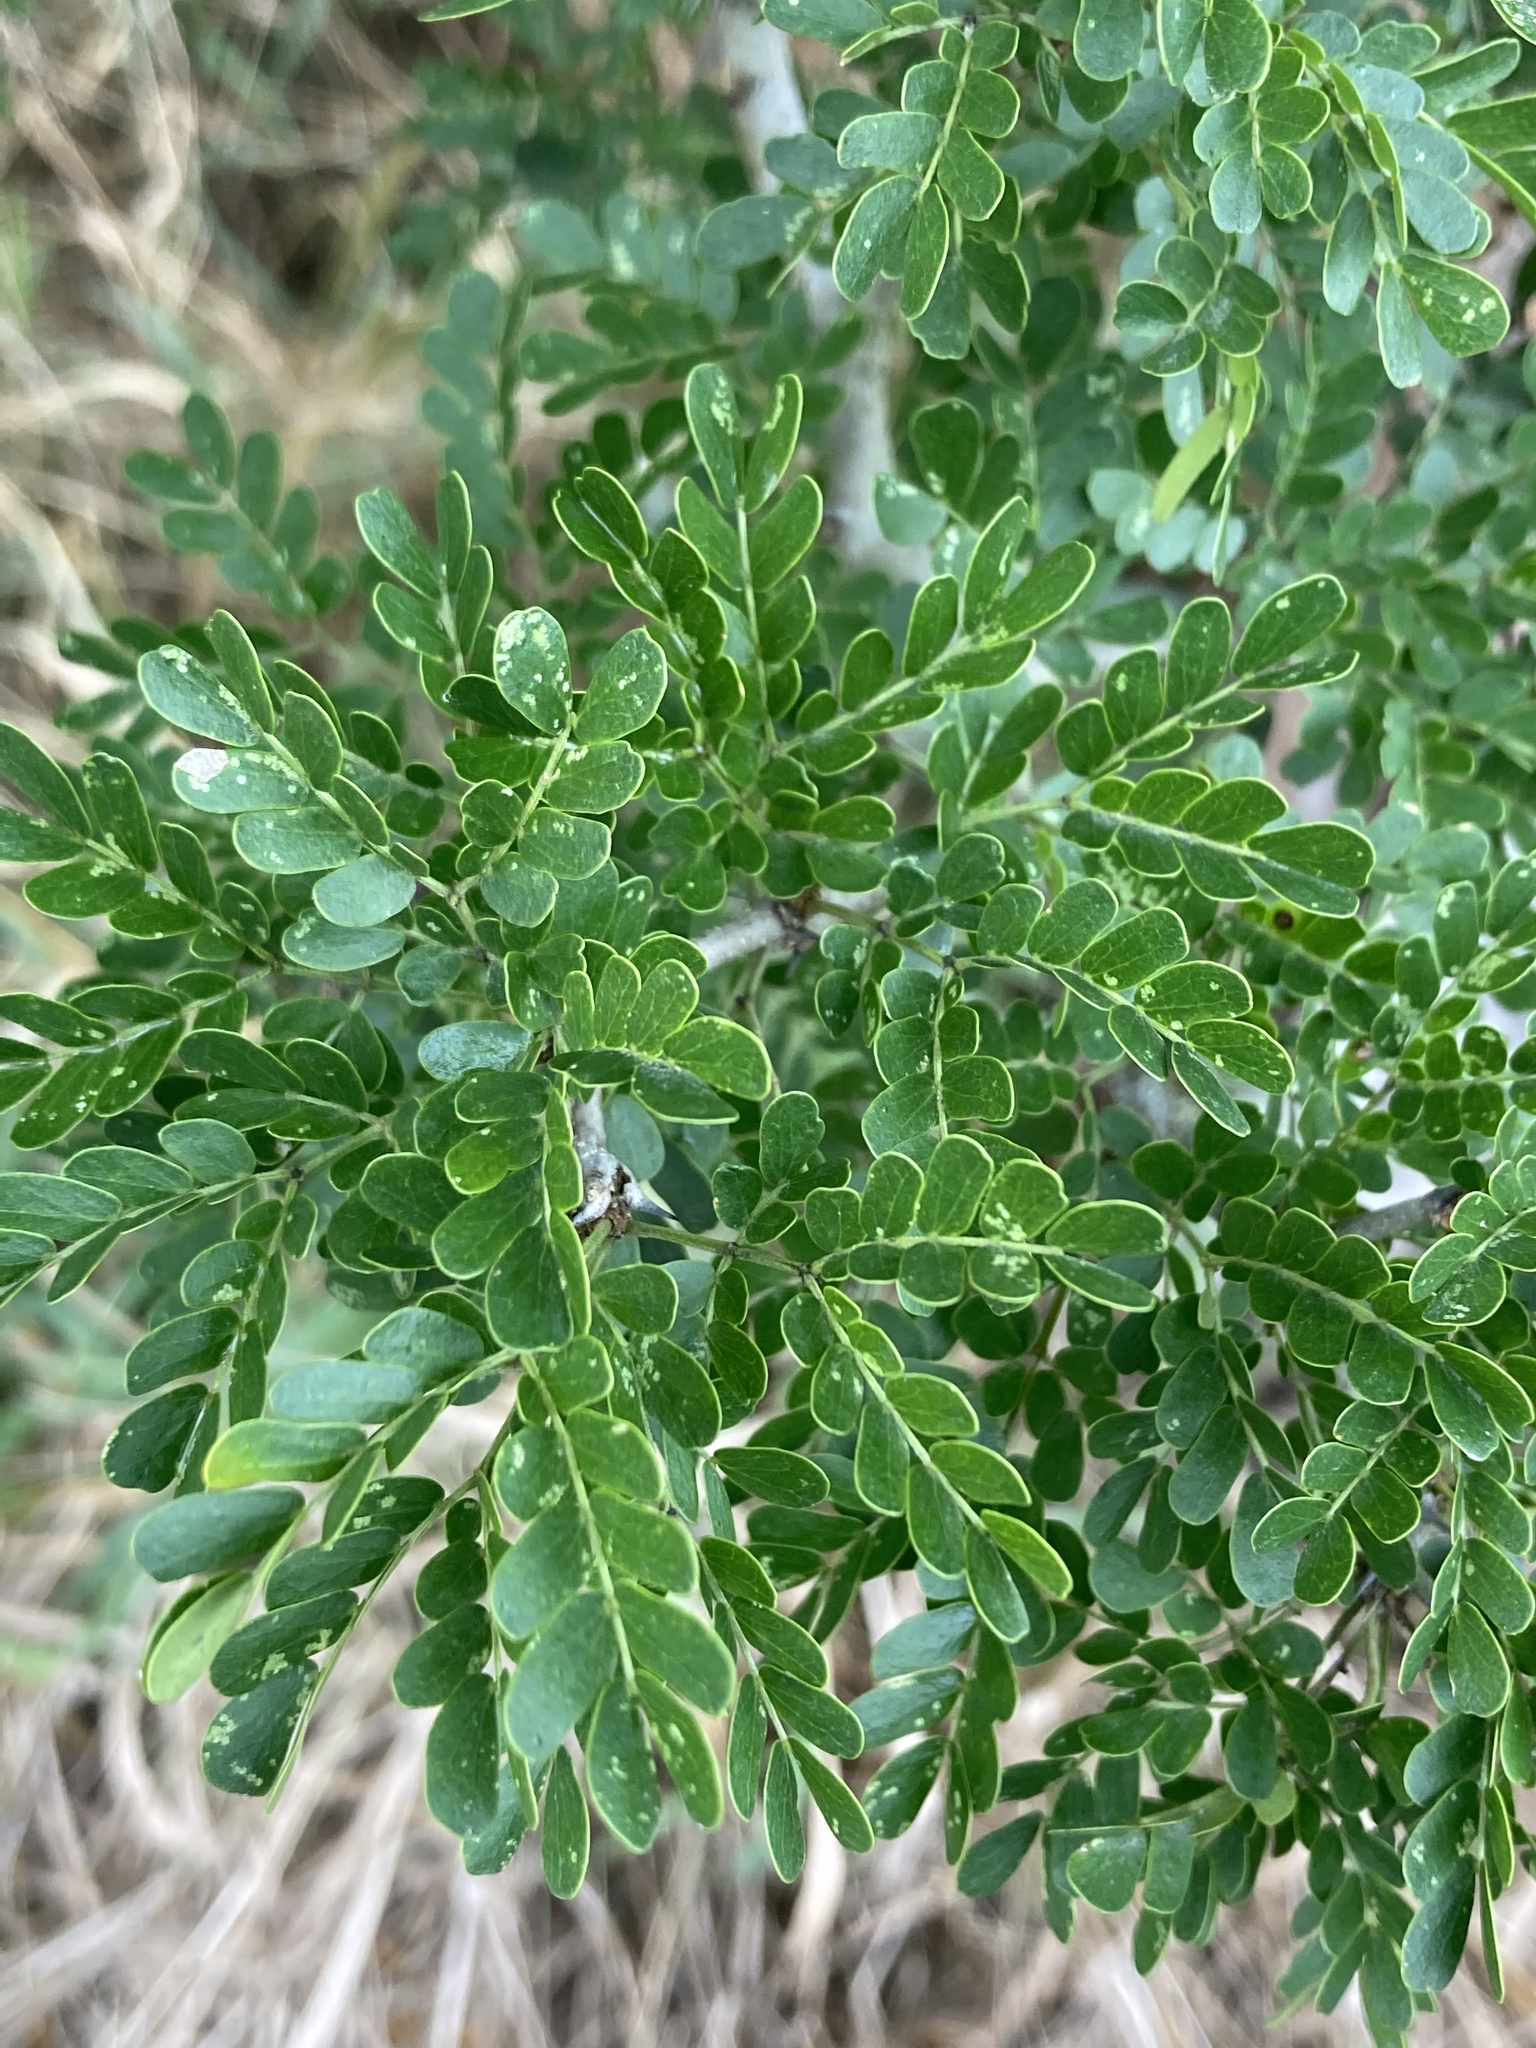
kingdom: Plantae
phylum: Tracheophyta
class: Magnoliopsida
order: Fabales
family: Fabaceae
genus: Ebenopsis
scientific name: Ebenopsis ebano
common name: Ebony blackbead
